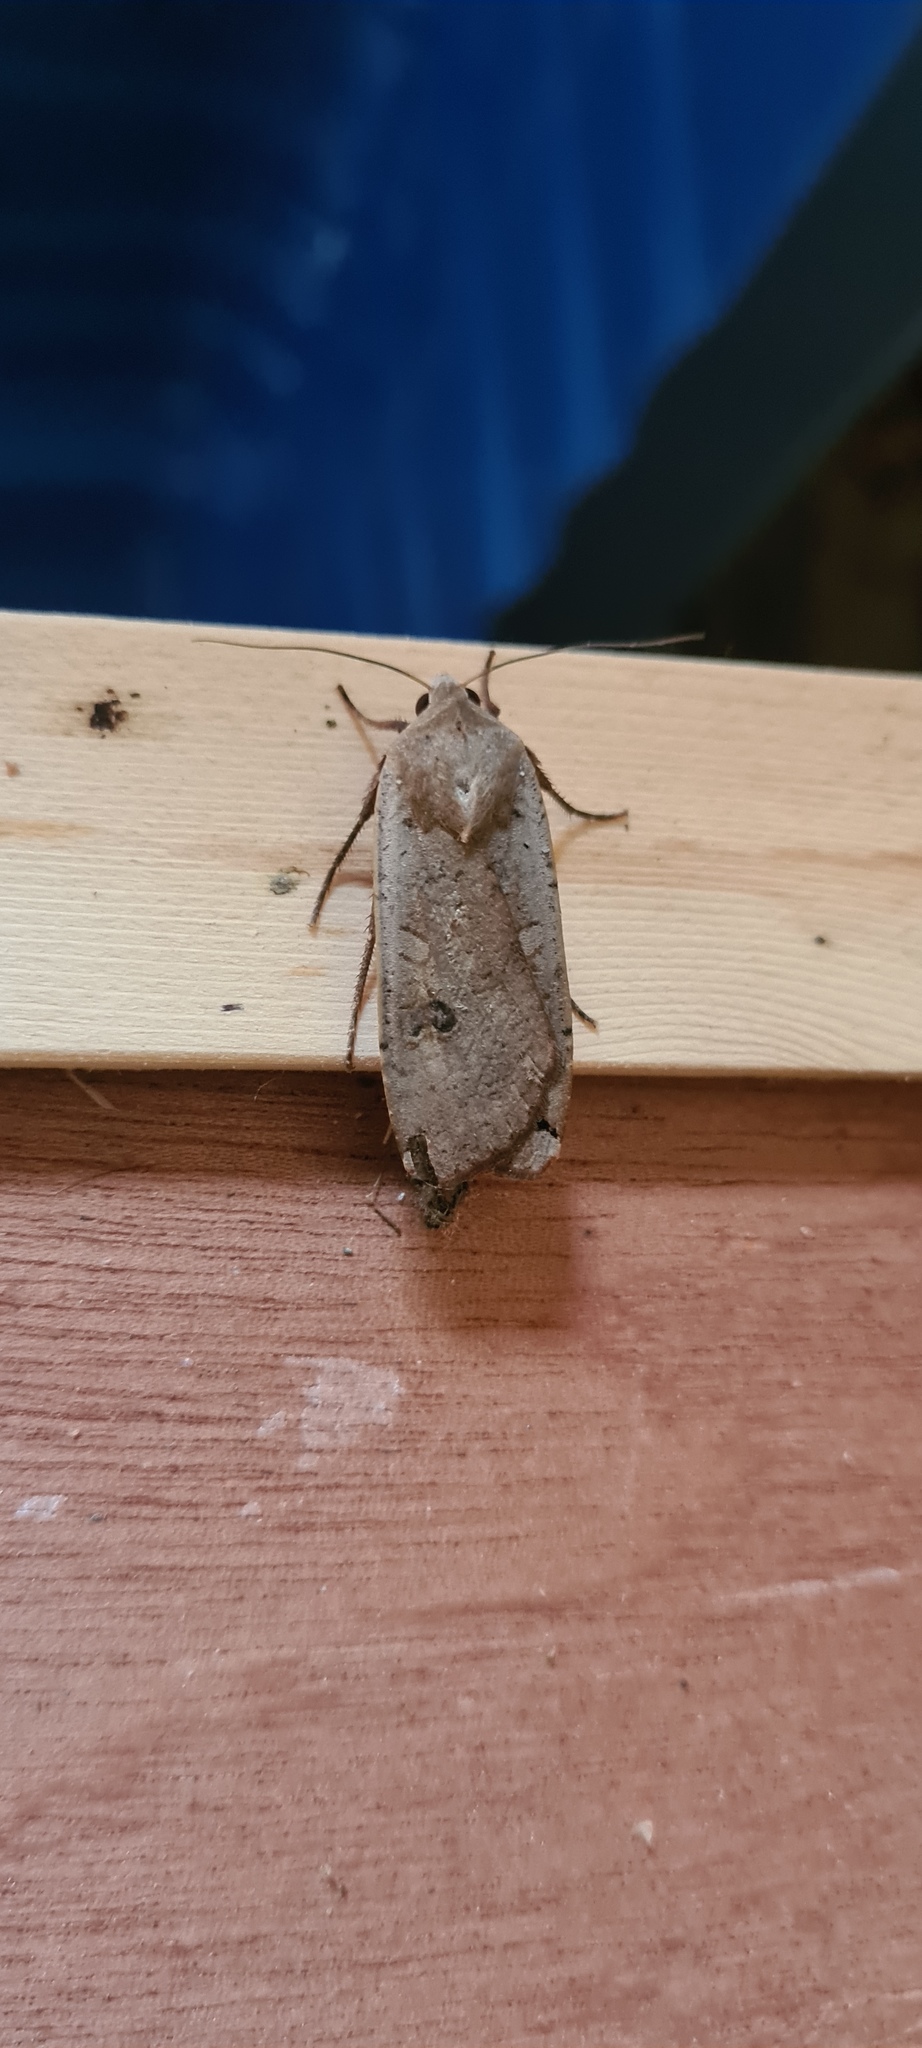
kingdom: Animalia
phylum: Arthropoda
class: Insecta
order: Lepidoptera
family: Noctuidae
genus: Noctua
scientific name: Noctua pronuba
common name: Large yellow underwing
